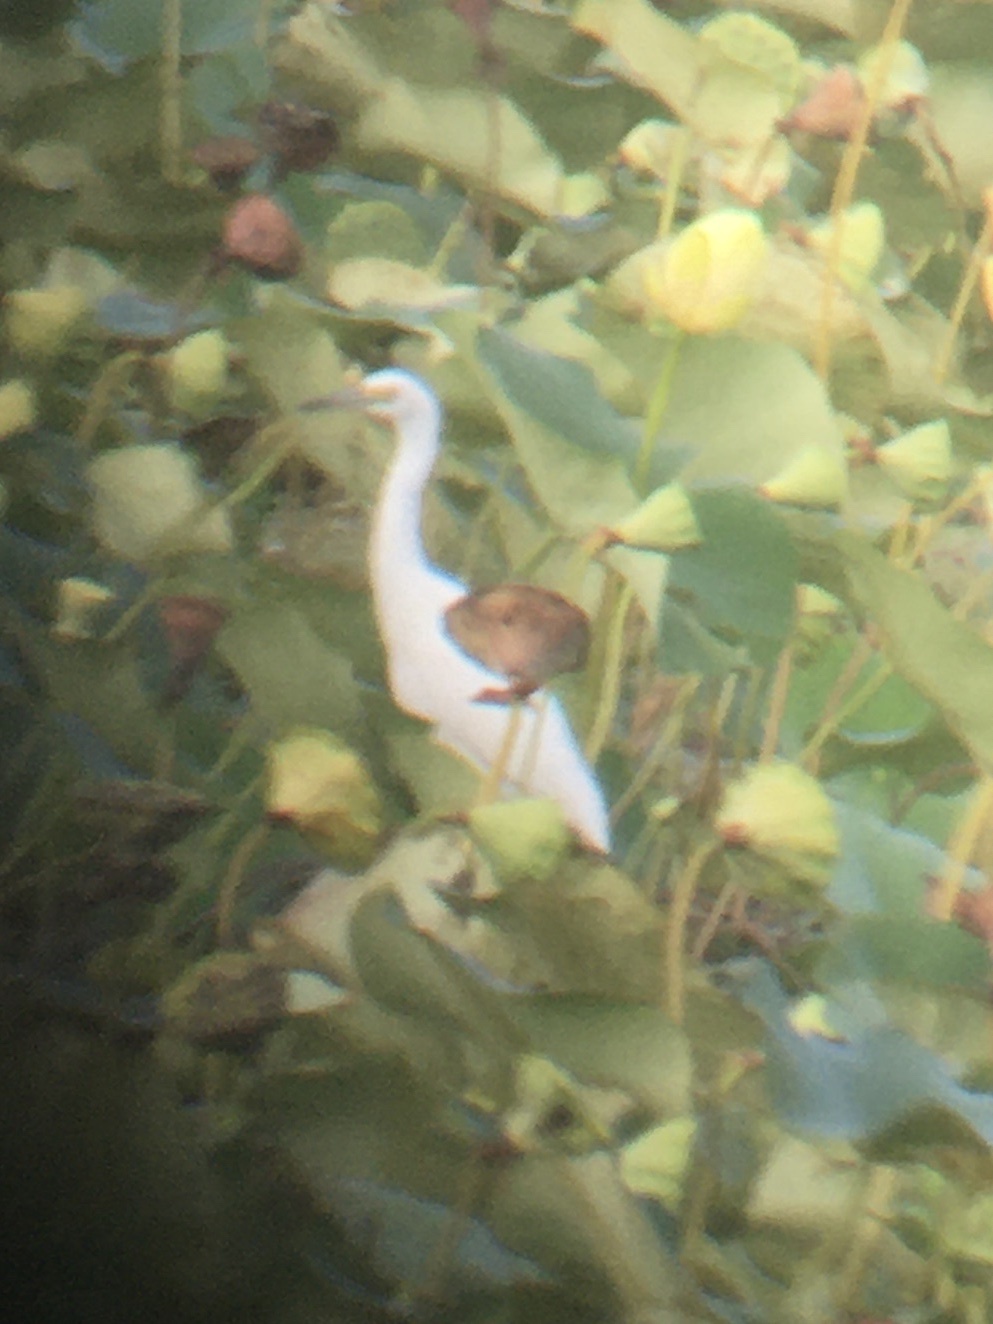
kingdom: Animalia
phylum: Chordata
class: Aves
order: Pelecaniformes
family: Ardeidae
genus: Egretta
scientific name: Egretta caerulea
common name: Little blue heron
